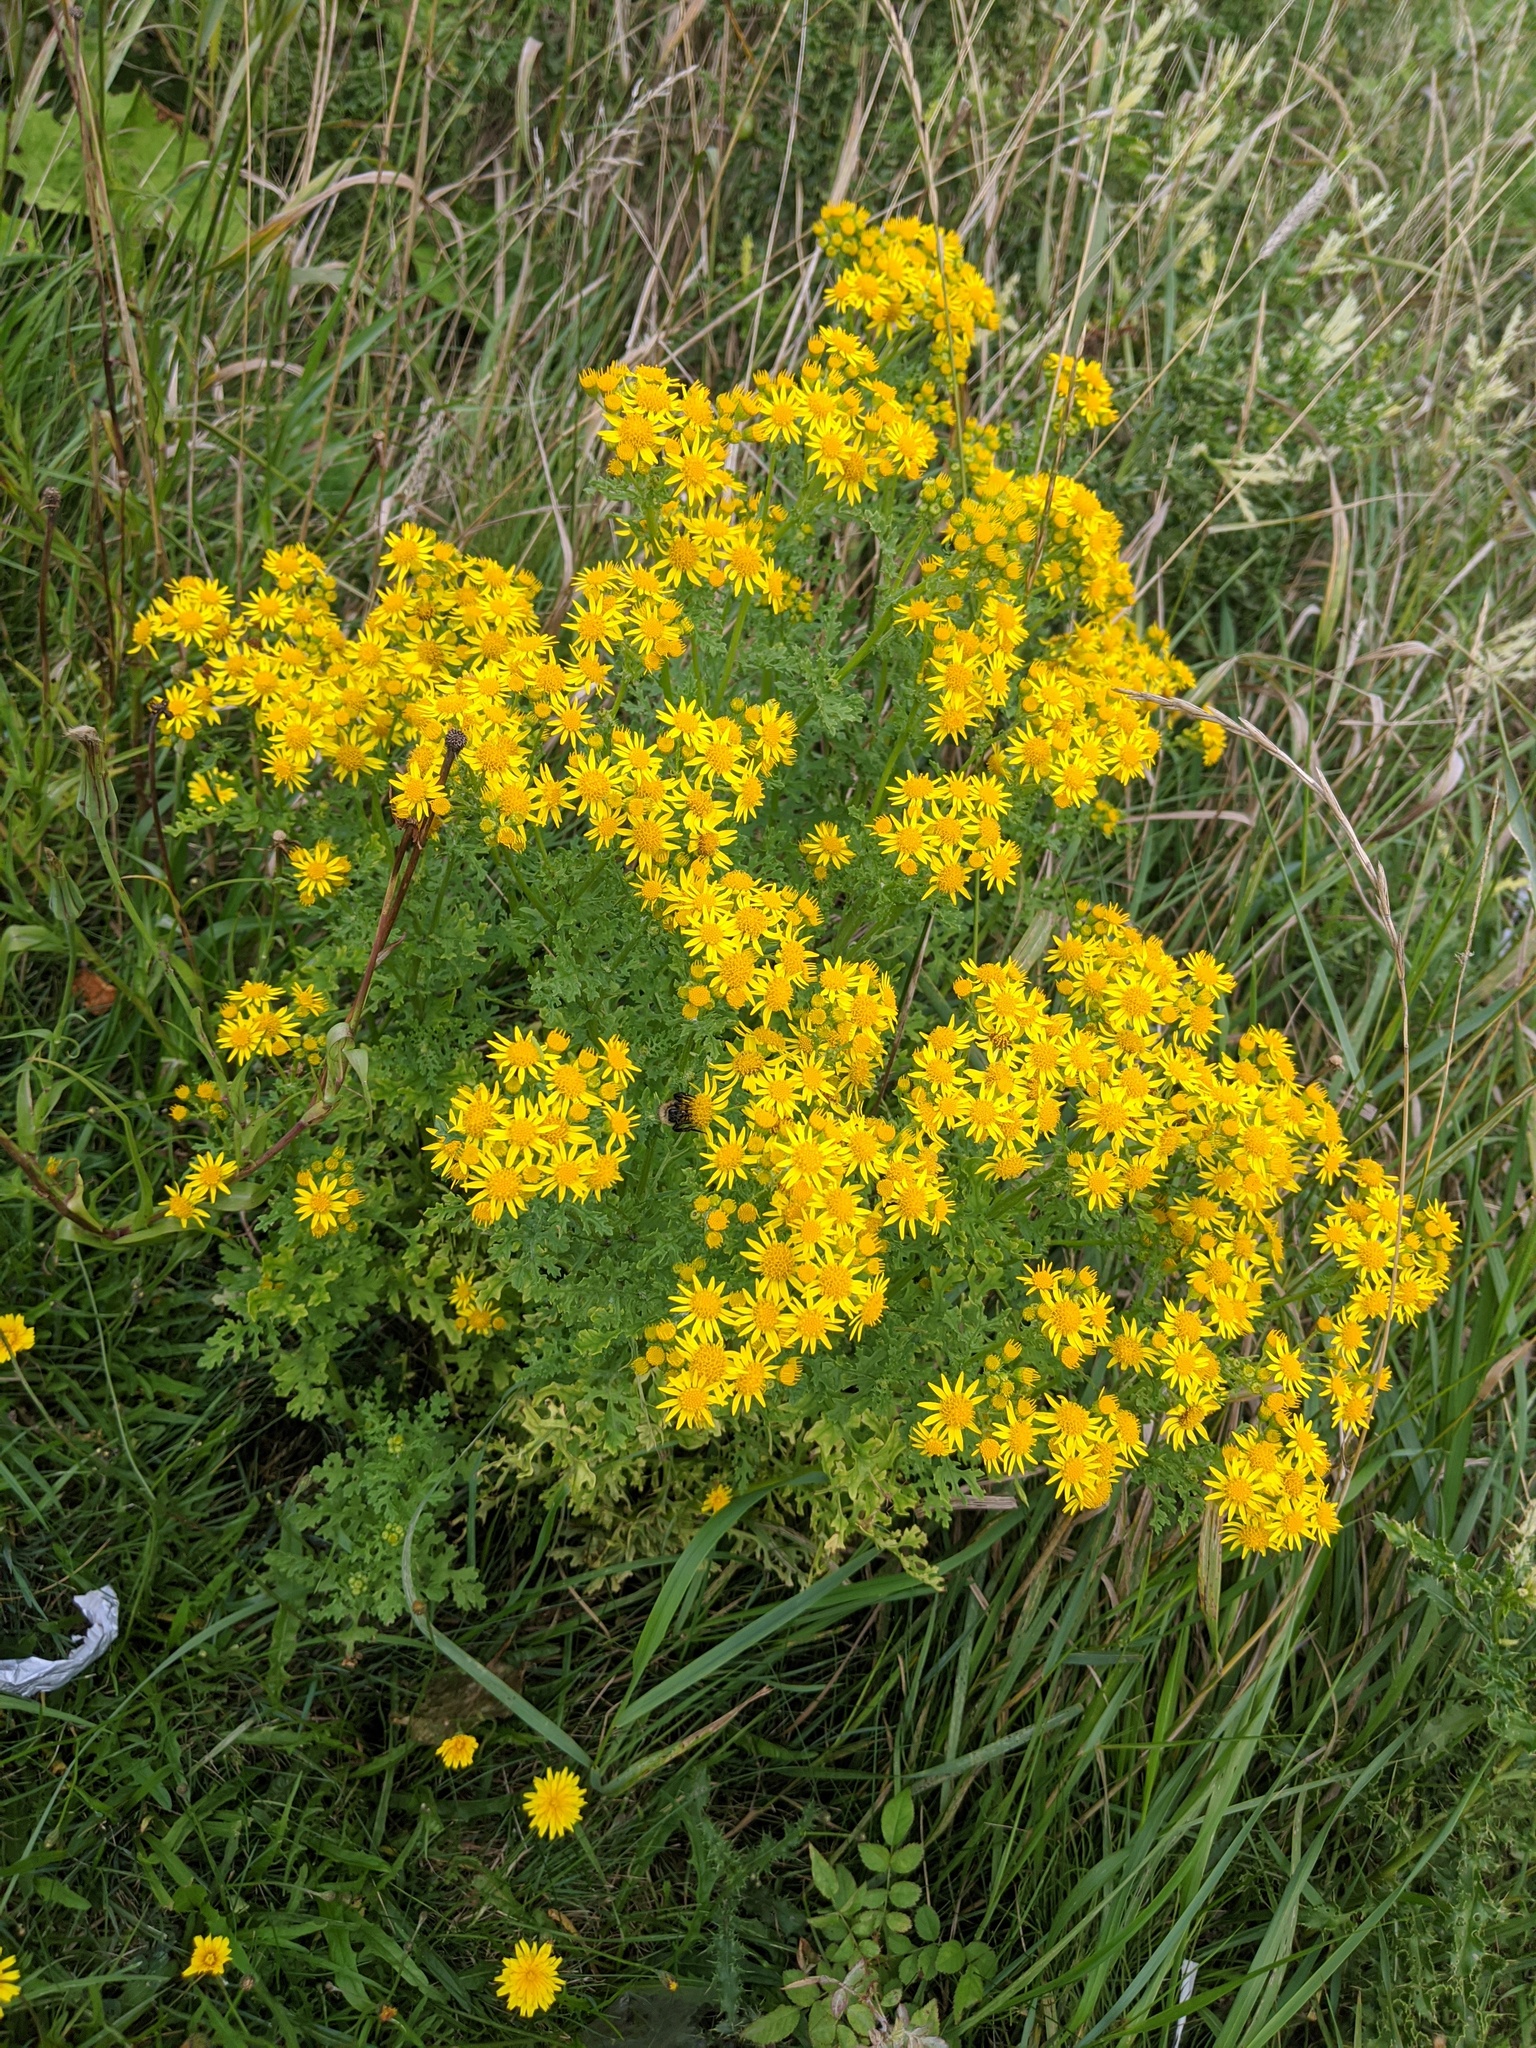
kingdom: Plantae
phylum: Tracheophyta
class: Magnoliopsida
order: Asterales
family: Asteraceae
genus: Jacobaea
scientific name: Jacobaea vulgaris
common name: Stinking willie
